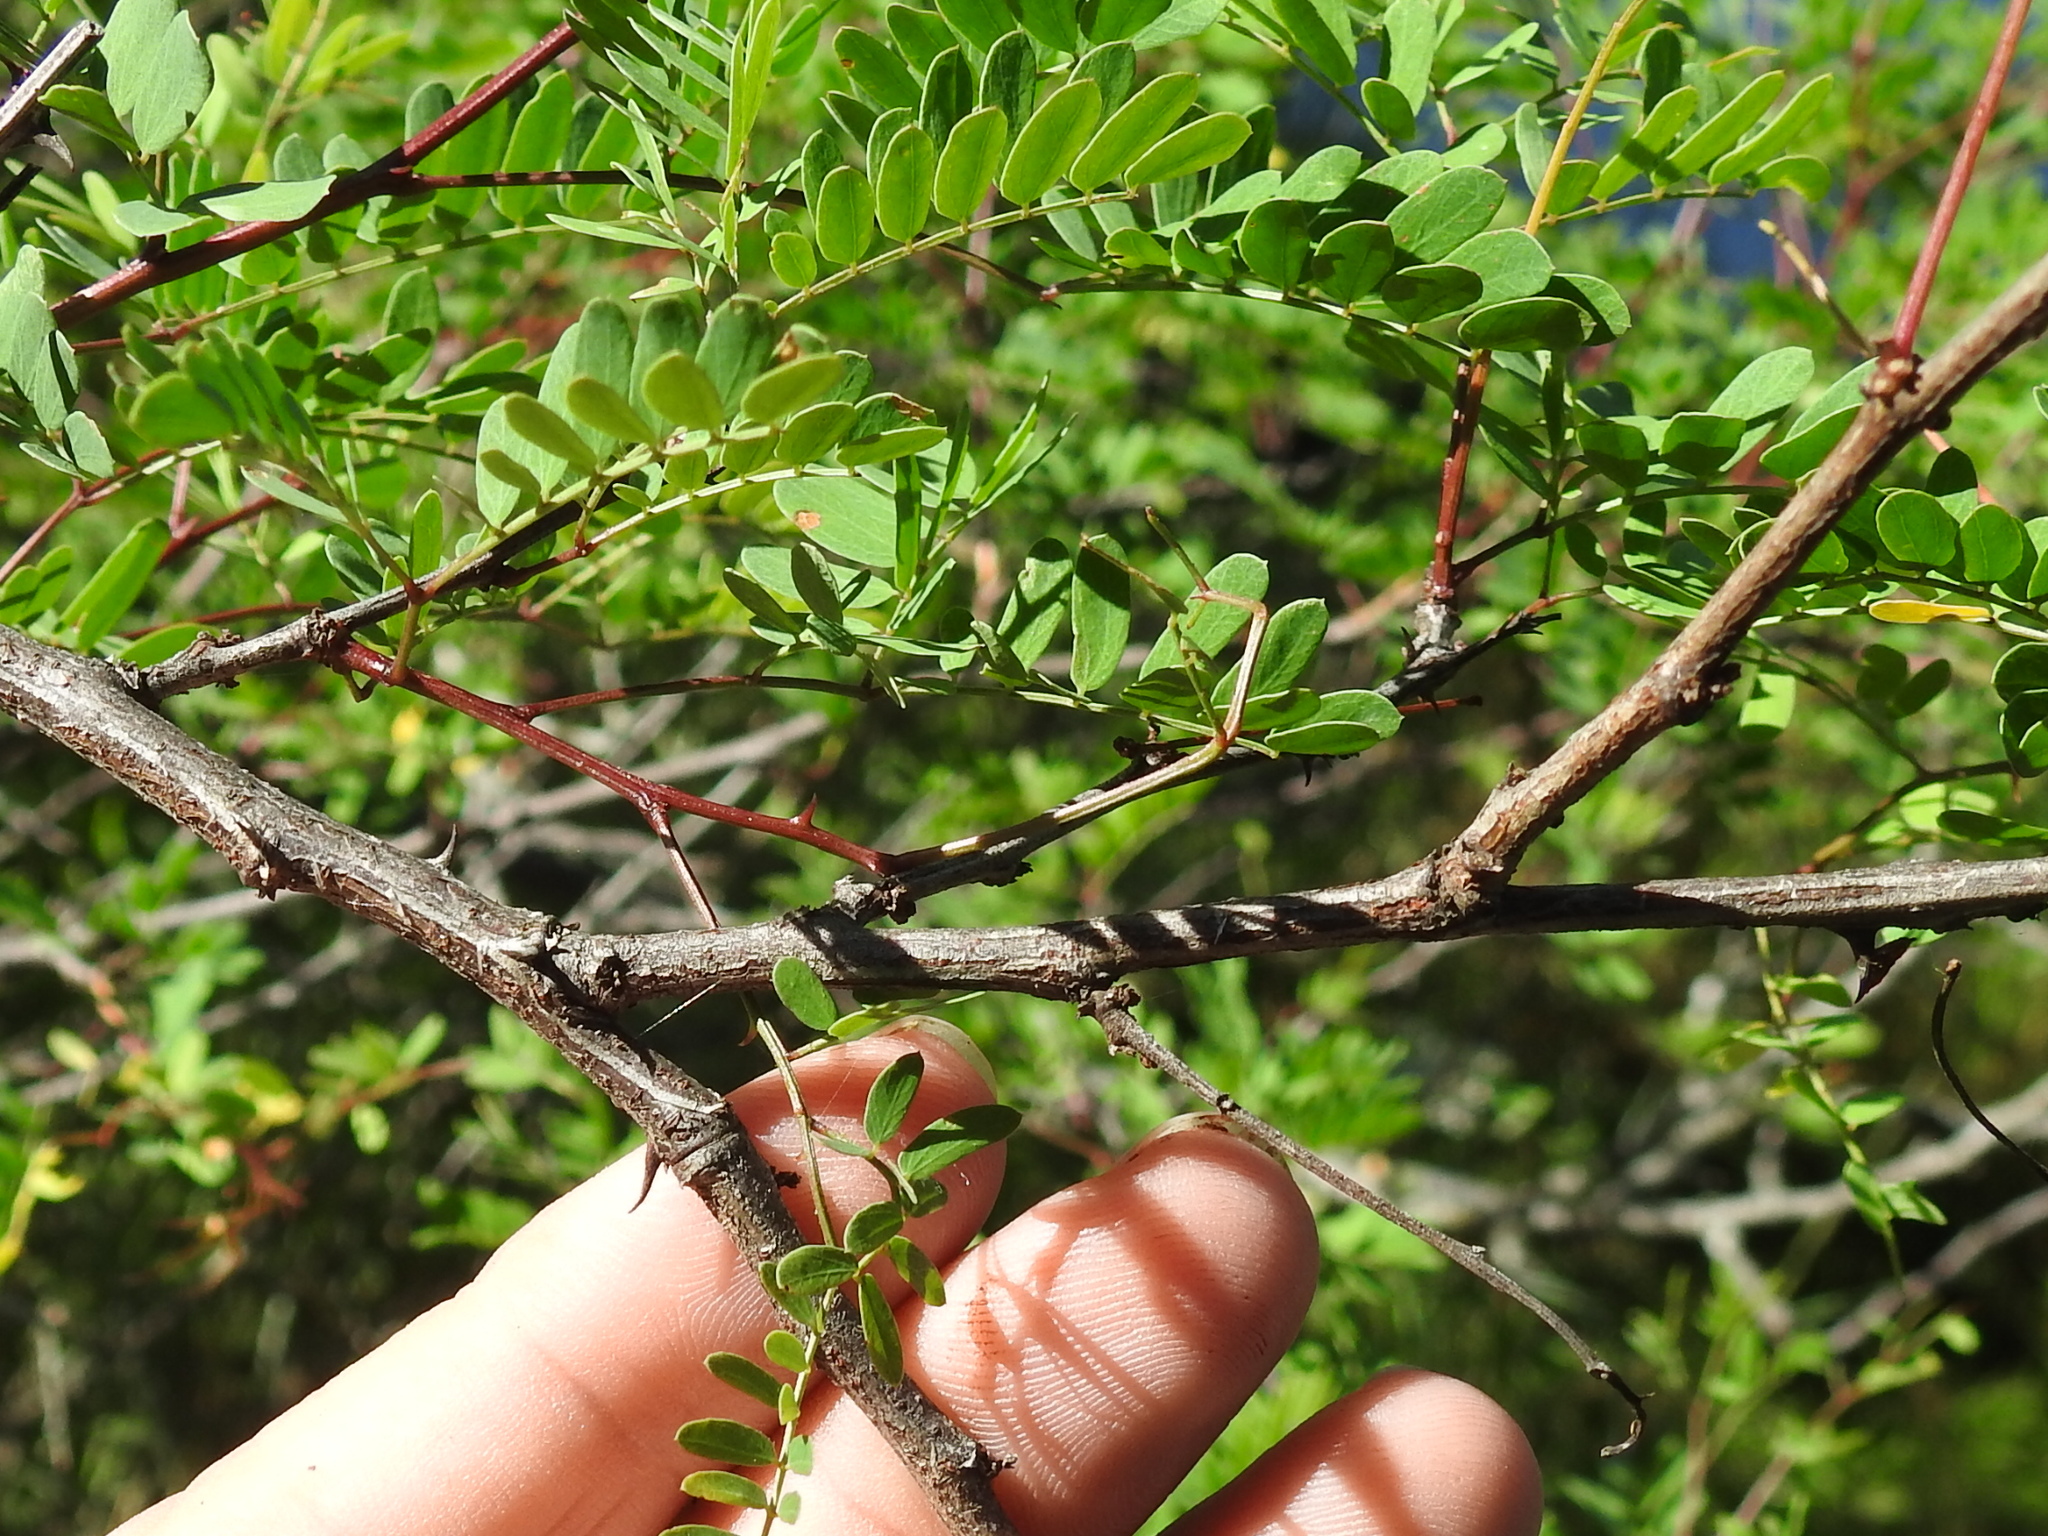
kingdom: Plantae
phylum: Tracheophyta
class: Magnoliopsida
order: Fabales
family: Fabaceae
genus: Senegalia
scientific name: Senegalia greggii
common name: Texas-mimosa
